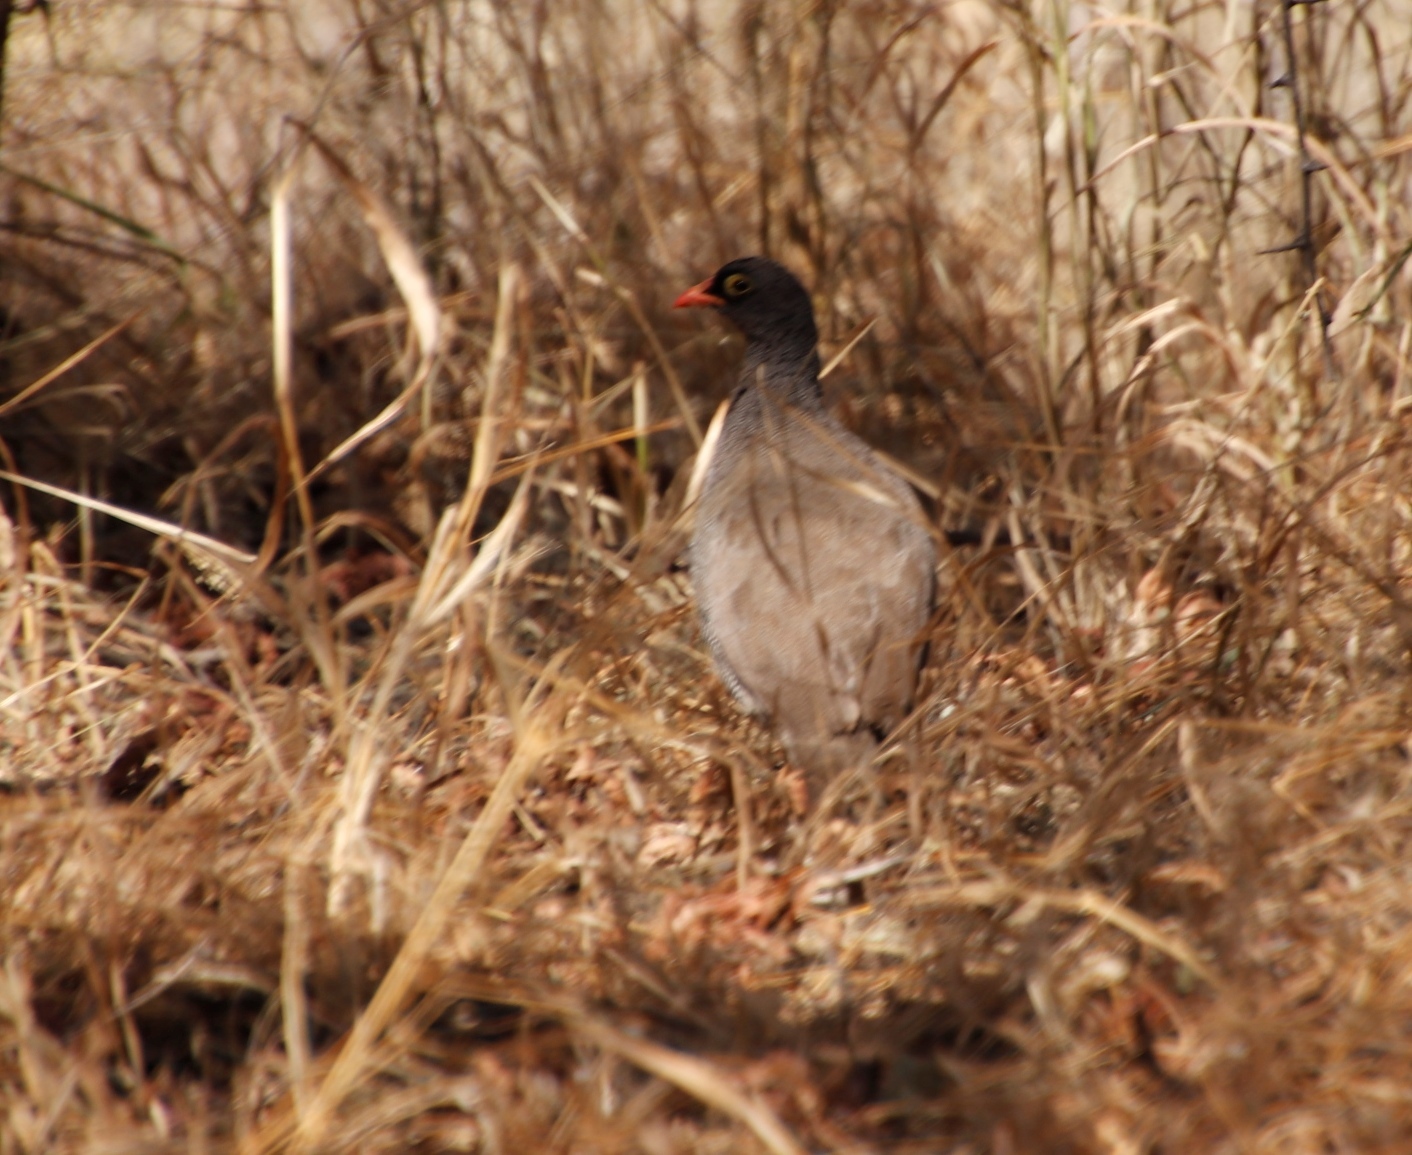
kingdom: Animalia
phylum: Chordata
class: Aves
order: Galliformes
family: Phasianidae
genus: Pternistis
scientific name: Pternistis adspersus
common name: Red-billed spurfowl
